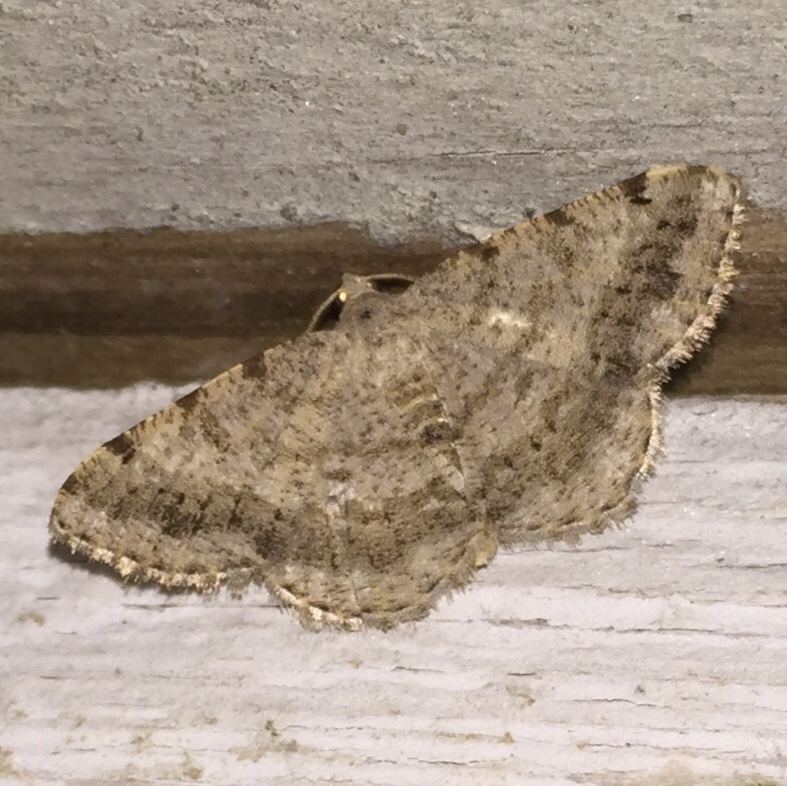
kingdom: Animalia
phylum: Arthropoda
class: Insecta
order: Lepidoptera
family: Geometridae
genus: Digrammia
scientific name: Digrammia ocellinata
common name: Faint-spotted angle
